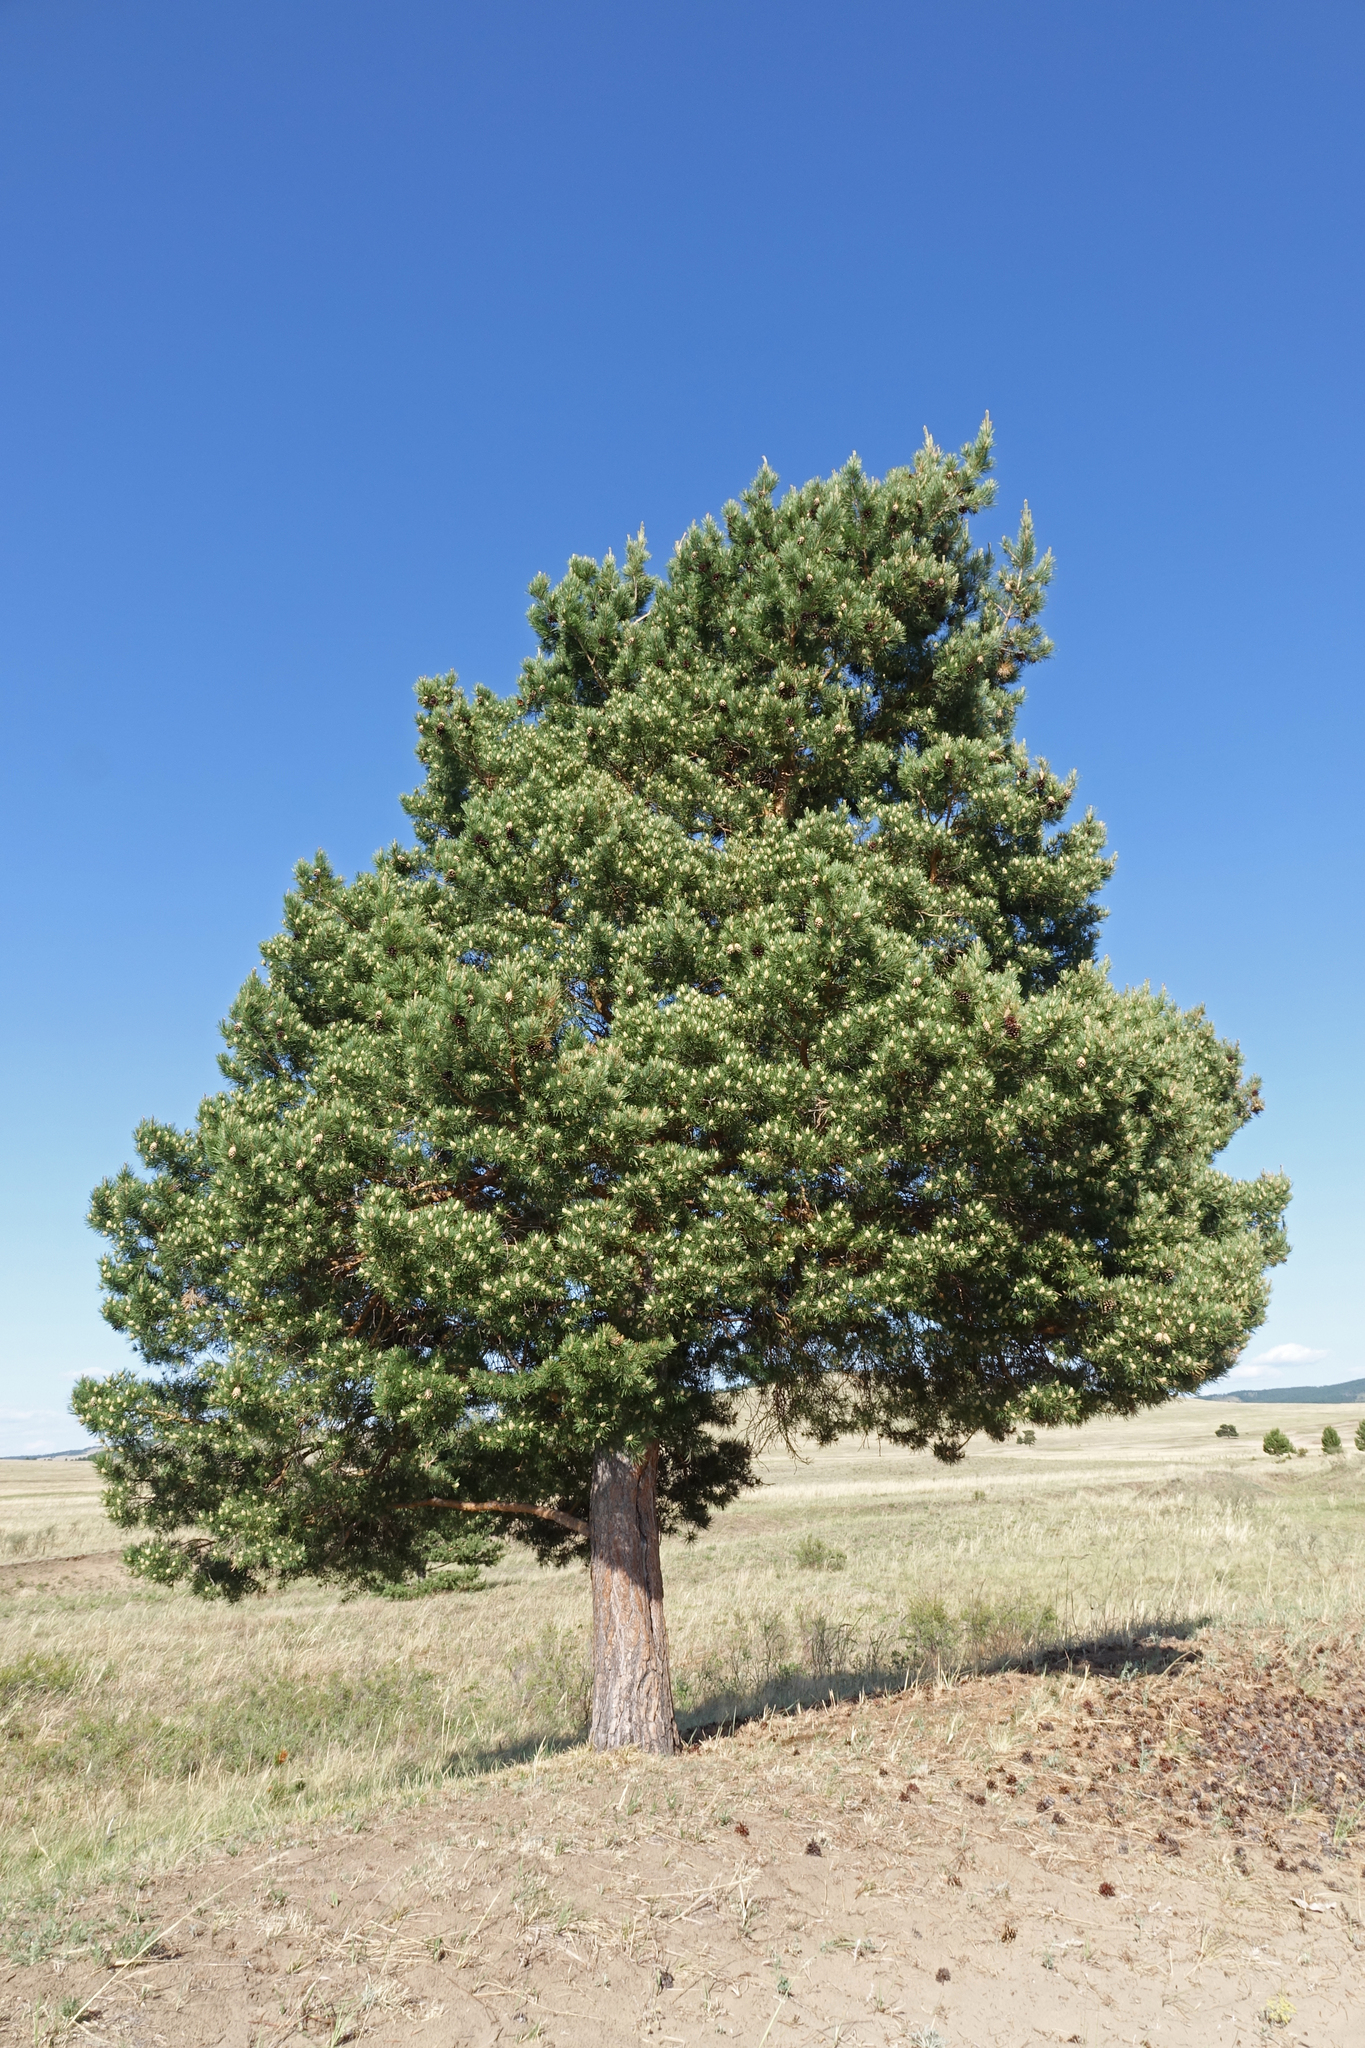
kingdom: Plantae
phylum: Tracheophyta
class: Pinopsida
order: Pinales
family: Pinaceae
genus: Pinus
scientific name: Pinus sylvestris
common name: Scots pine
